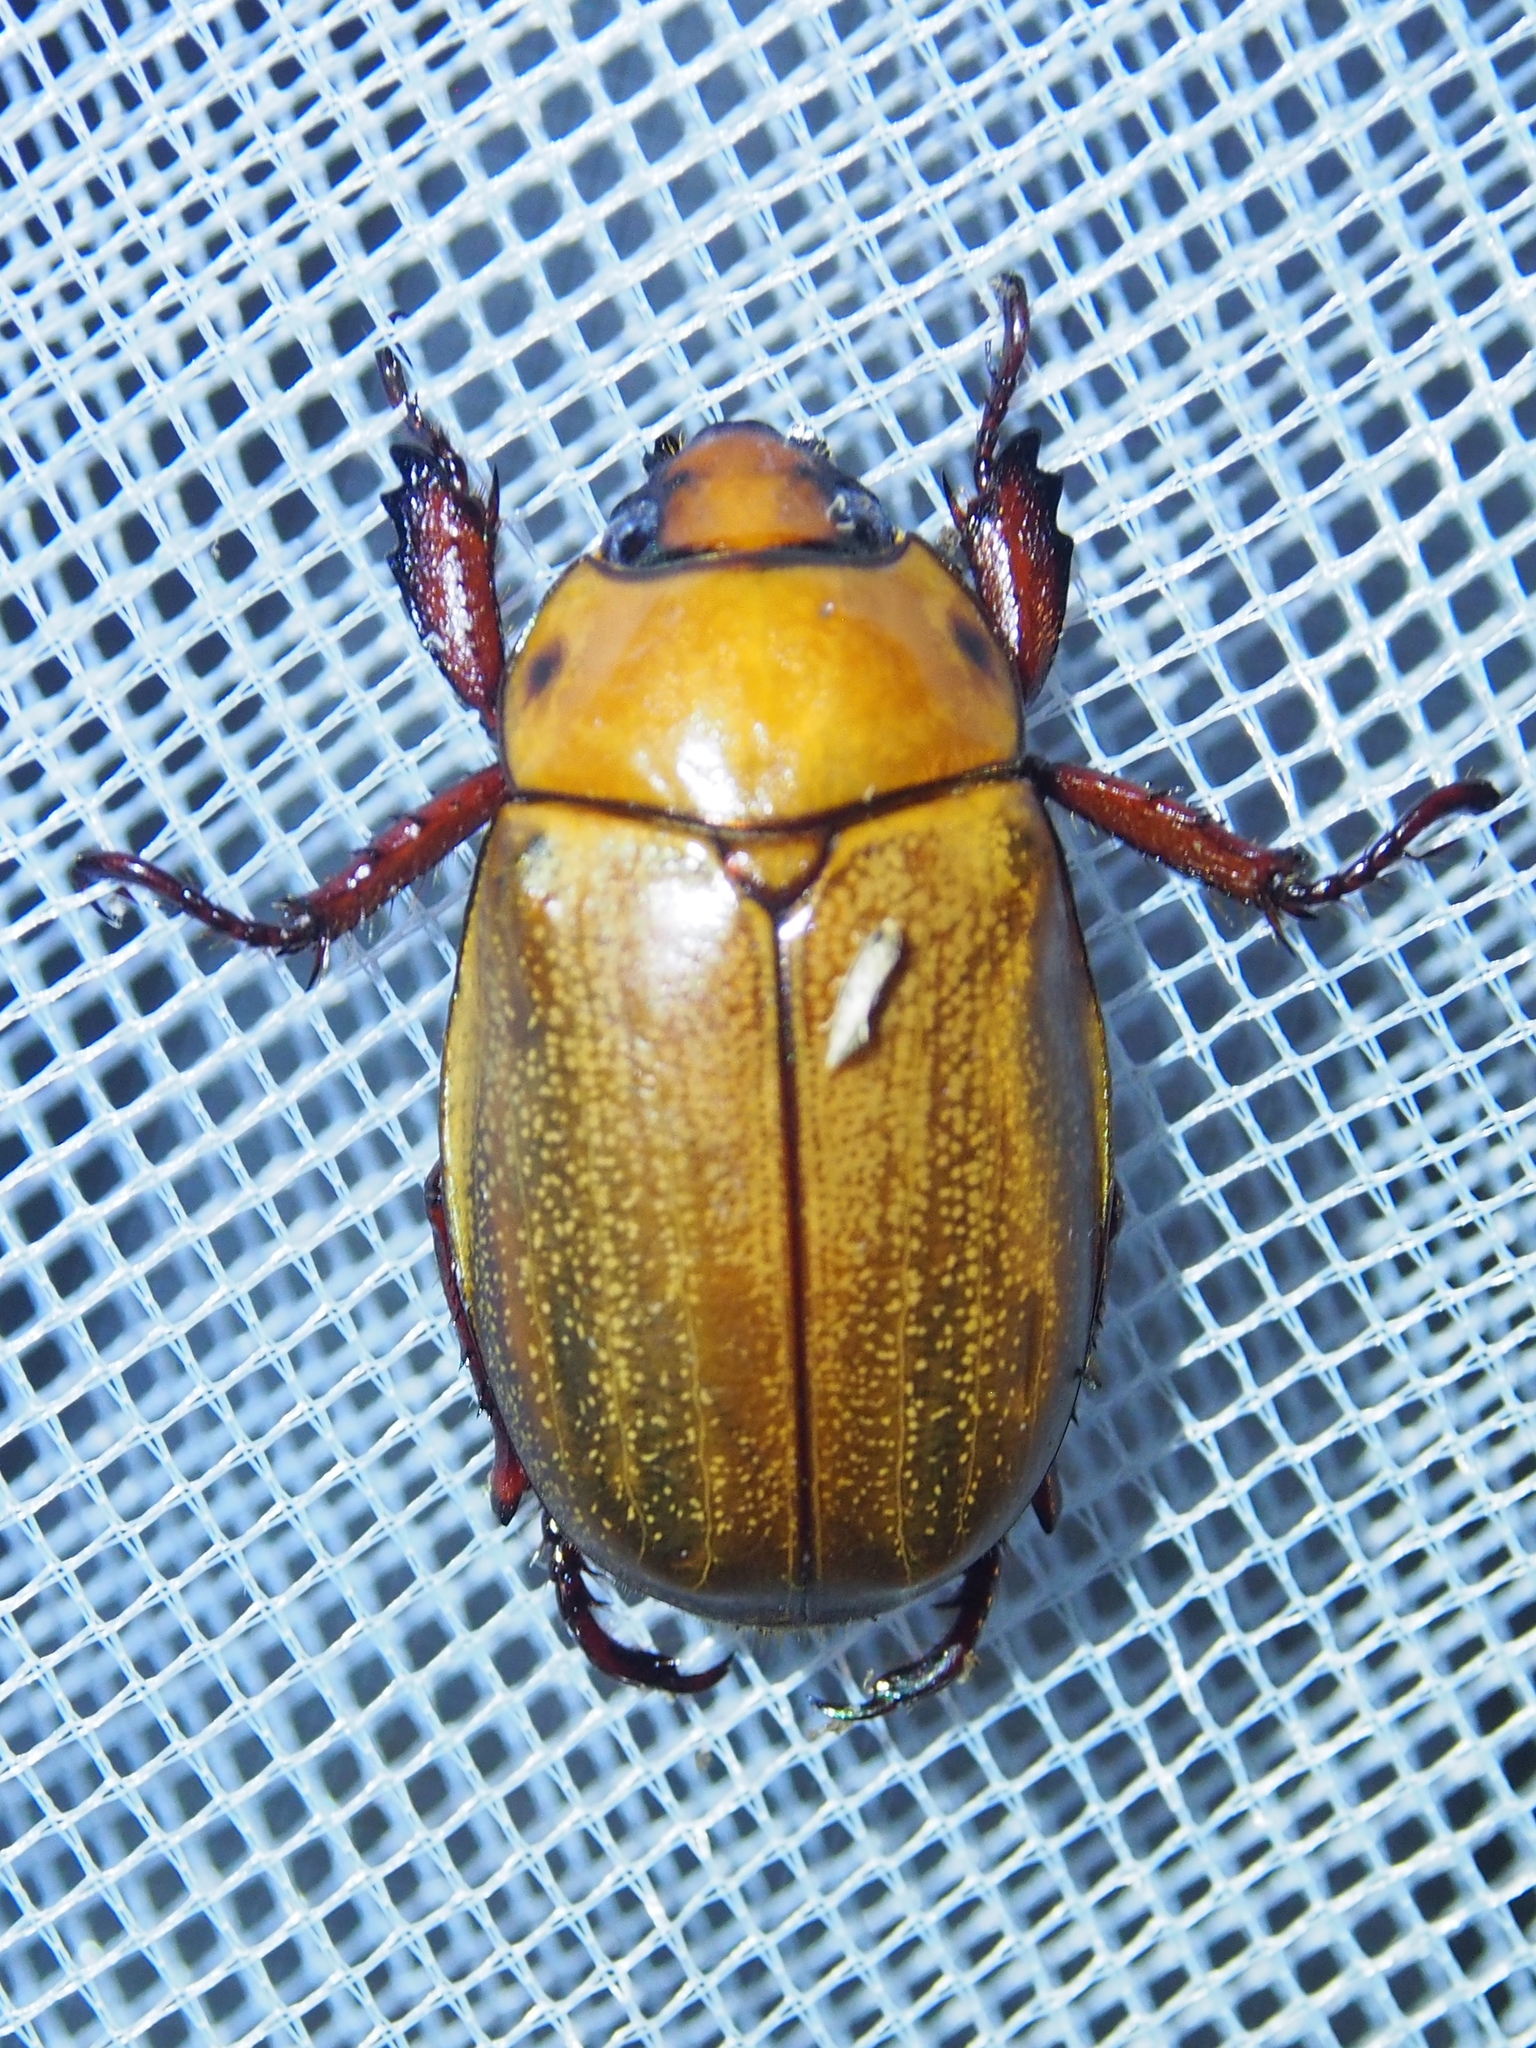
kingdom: Animalia
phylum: Arthropoda
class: Insecta
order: Coleoptera
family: Scarabaeidae
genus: Pelidnota
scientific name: Pelidnota frommeri
